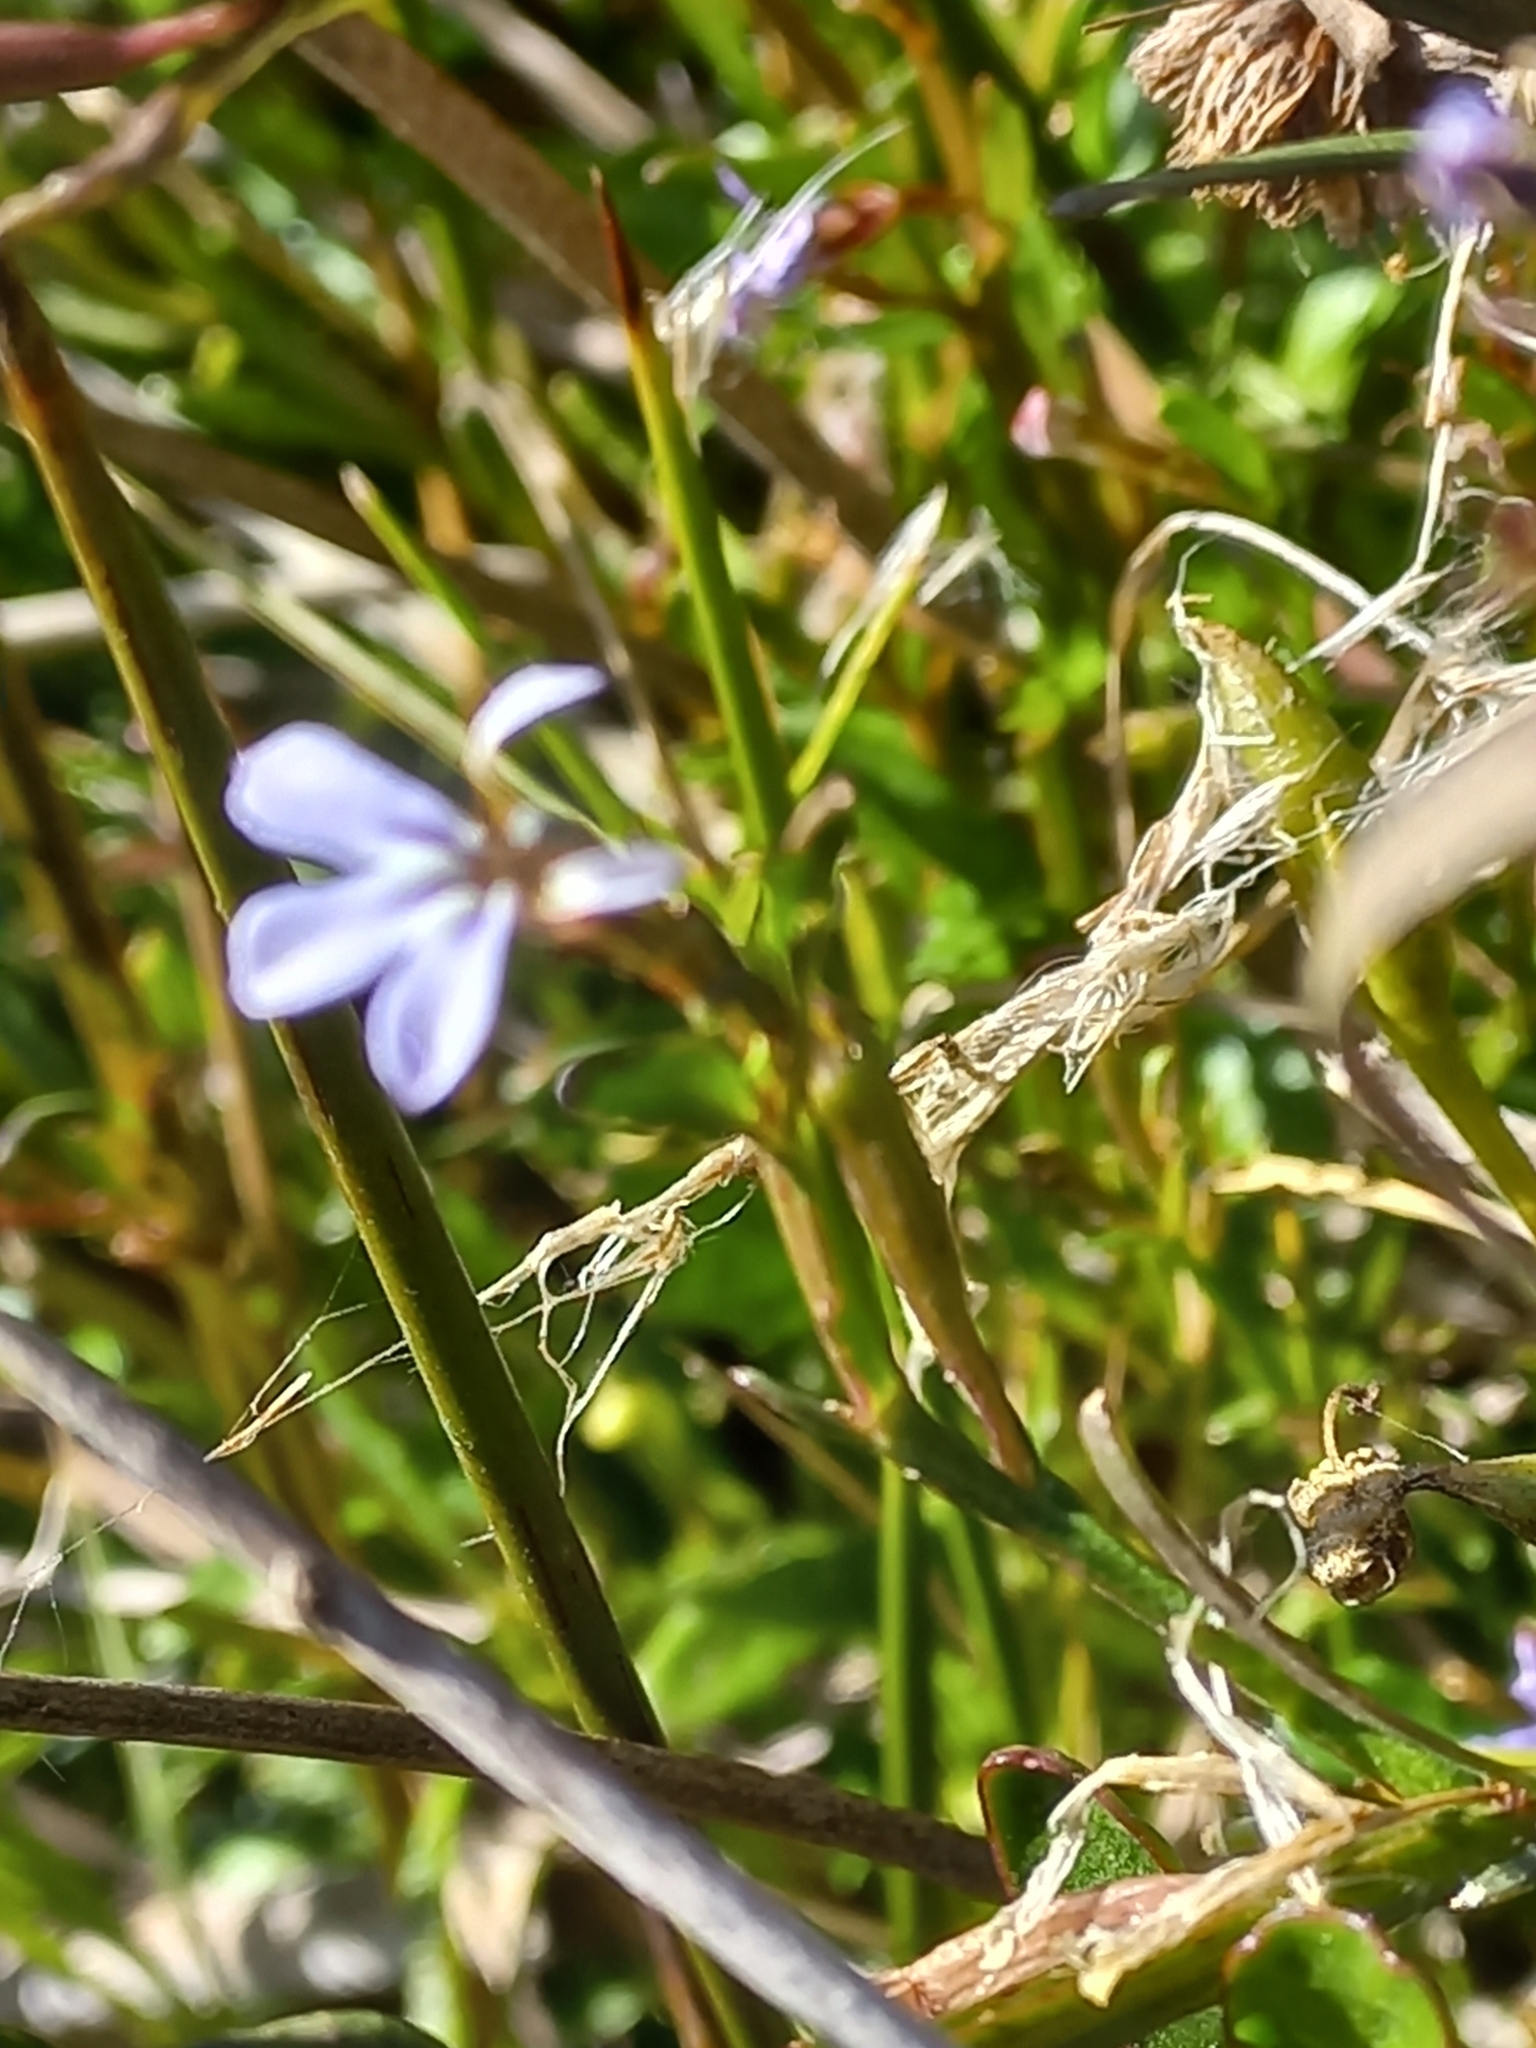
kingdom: Plantae
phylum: Tracheophyta
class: Magnoliopsida
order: Asterales
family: Campanulaceae
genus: Lobelia
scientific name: Lobelia anceps
